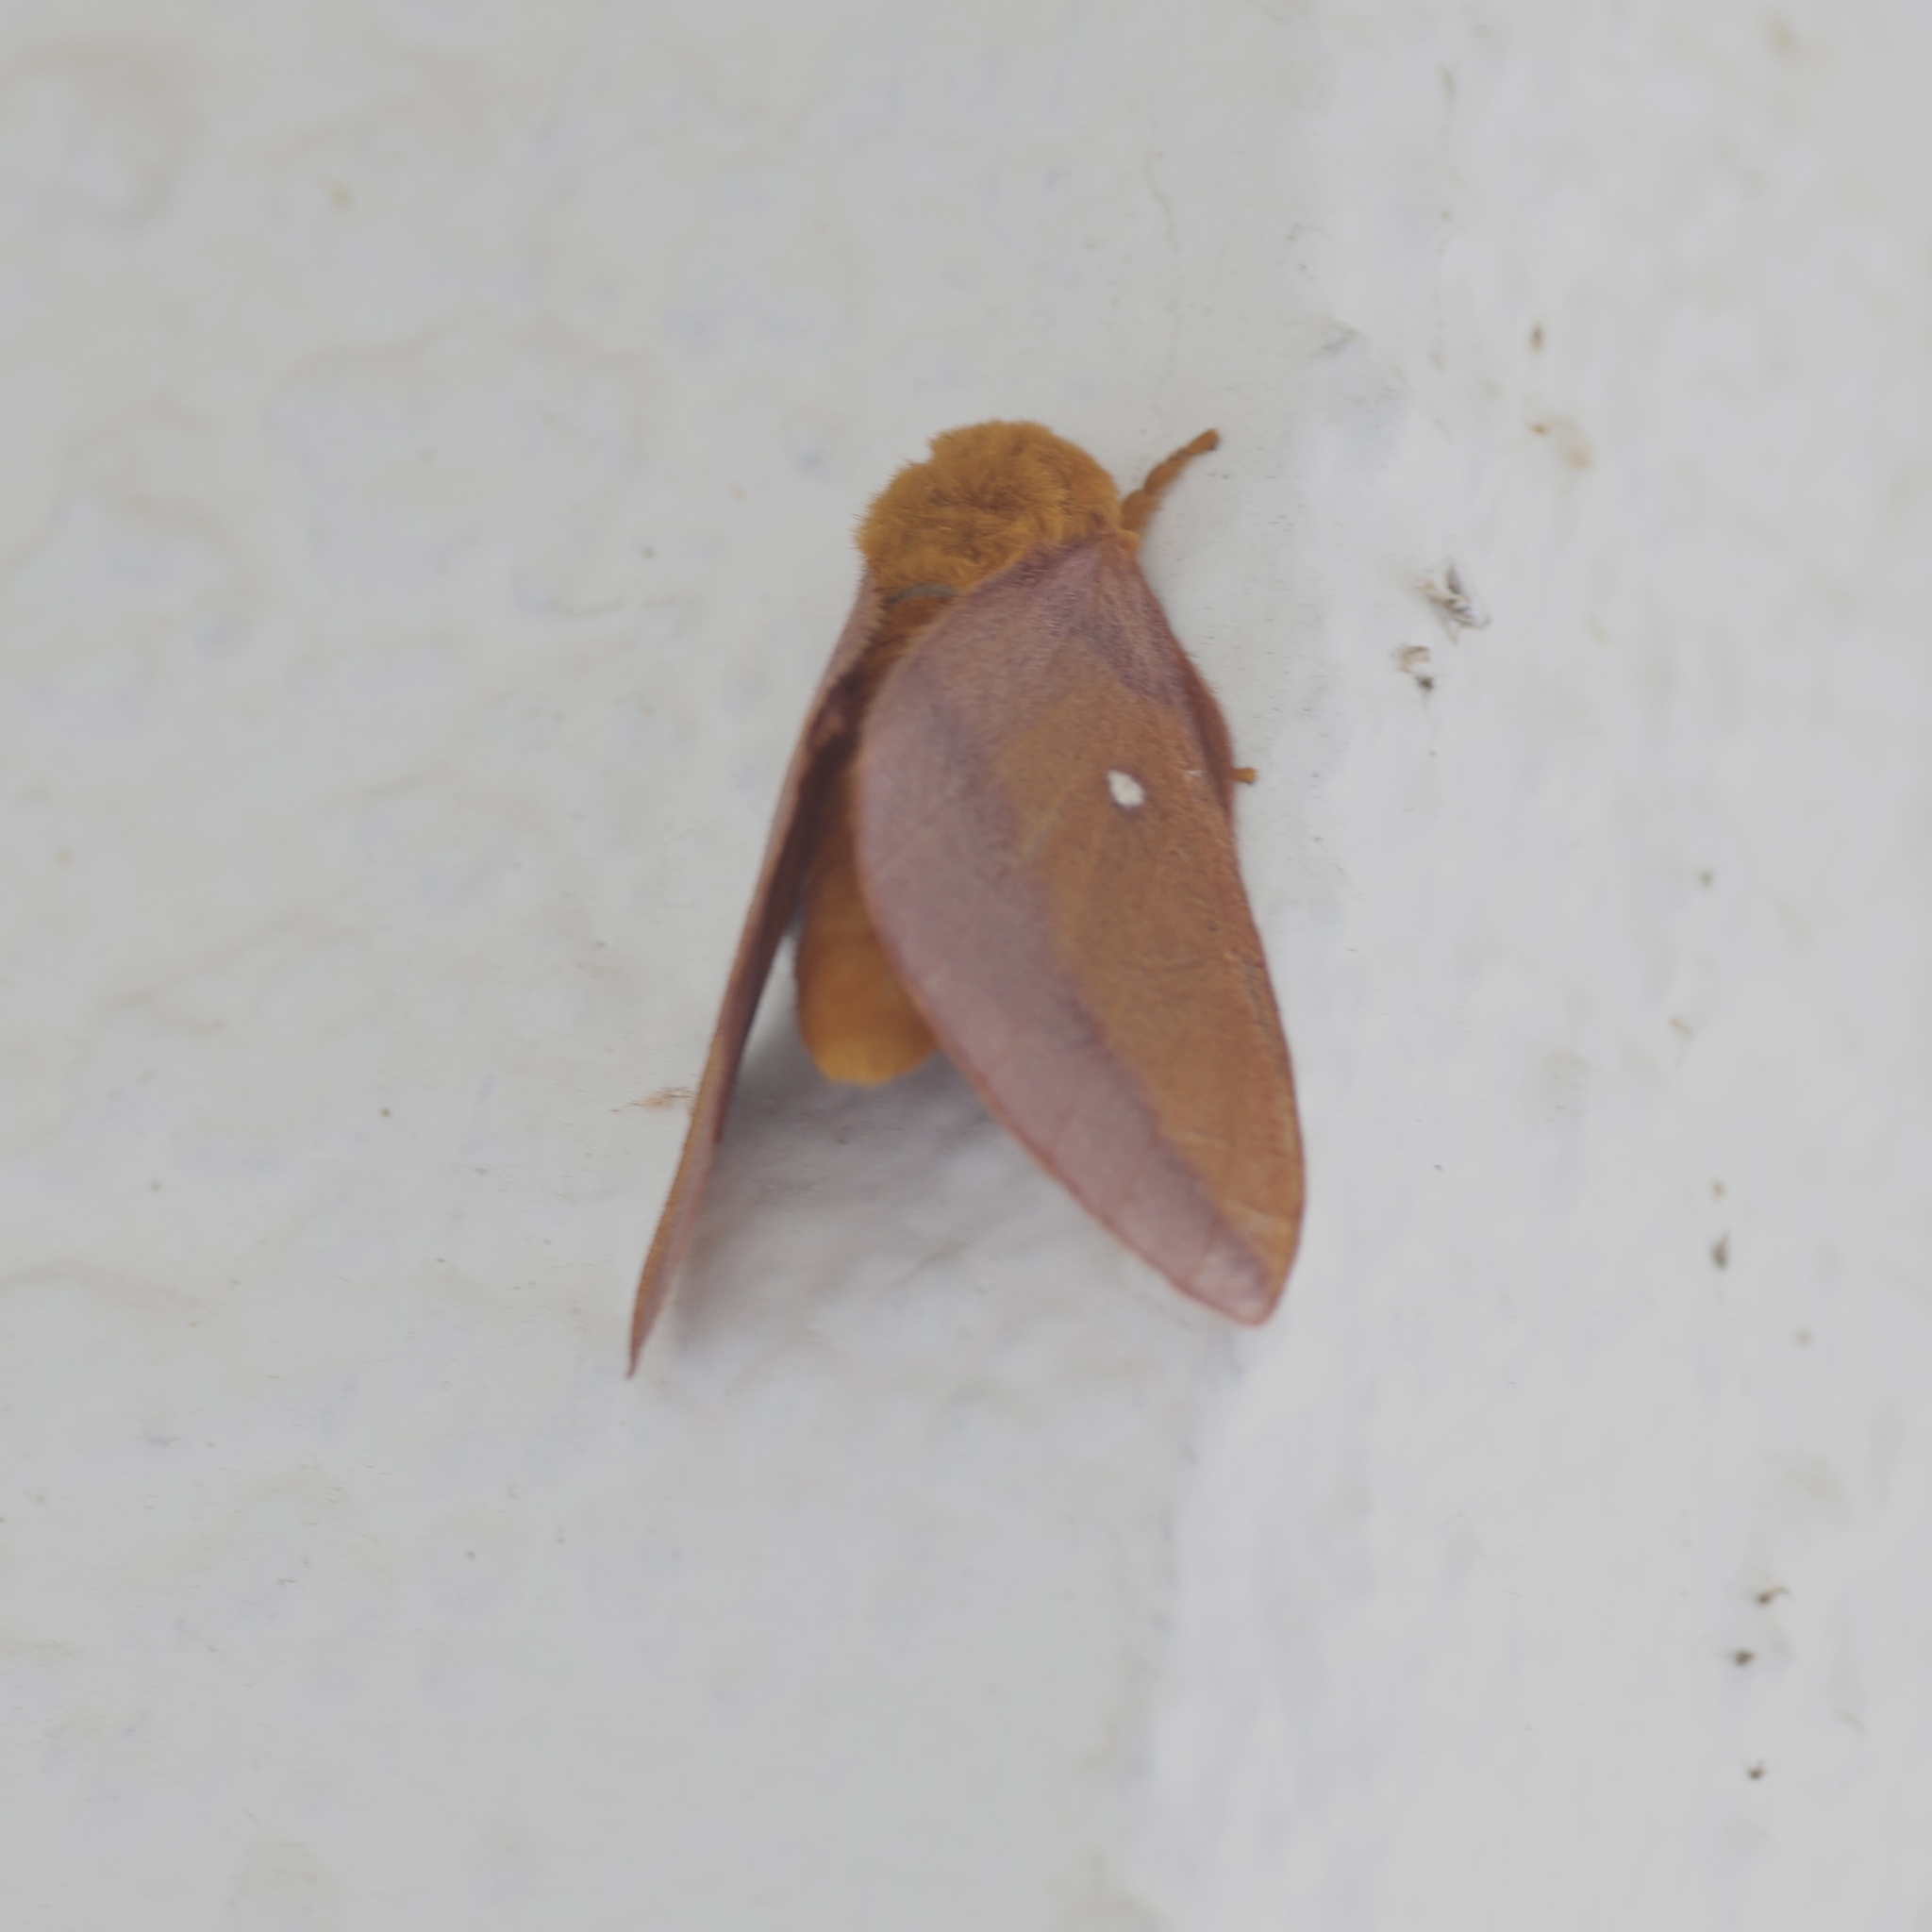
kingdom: Animalia
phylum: Arthropoda
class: Insecta
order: Lepidoptera
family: Saturniidae
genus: Anisota
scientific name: Anisota virginiensis
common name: Pink striped oakworm moth
